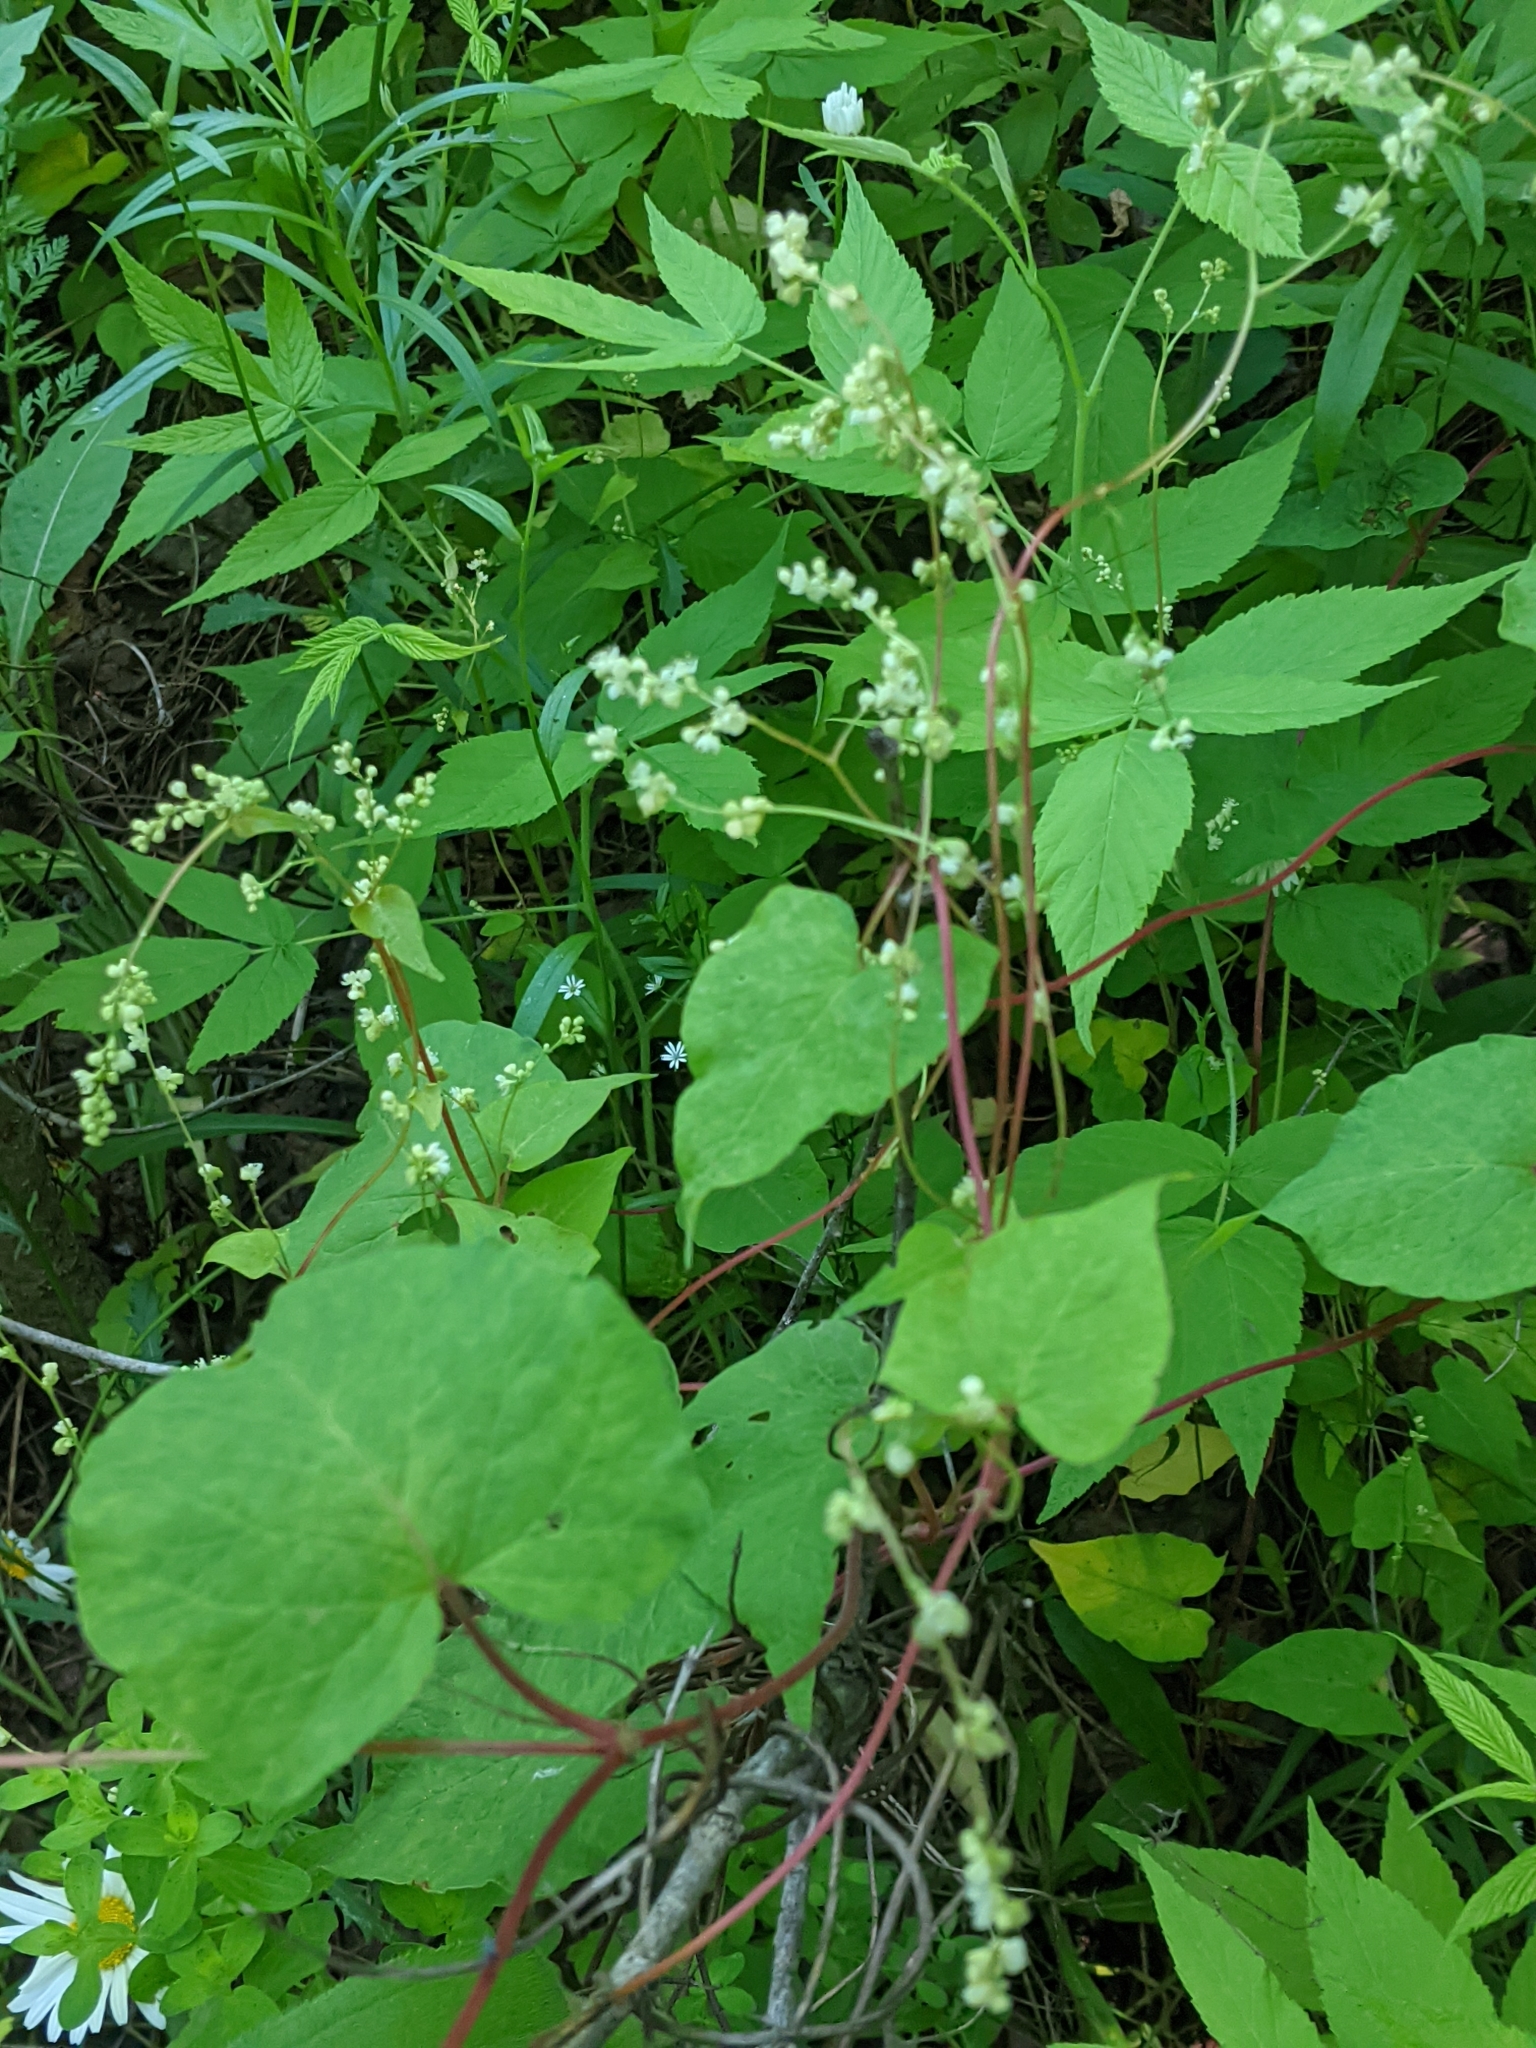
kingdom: Plantae
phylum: Tracheophyta
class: Magnoliopsida
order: Caryophyllales
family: Polygonaceae
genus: Parogonum
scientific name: Parogonum ciliinode
